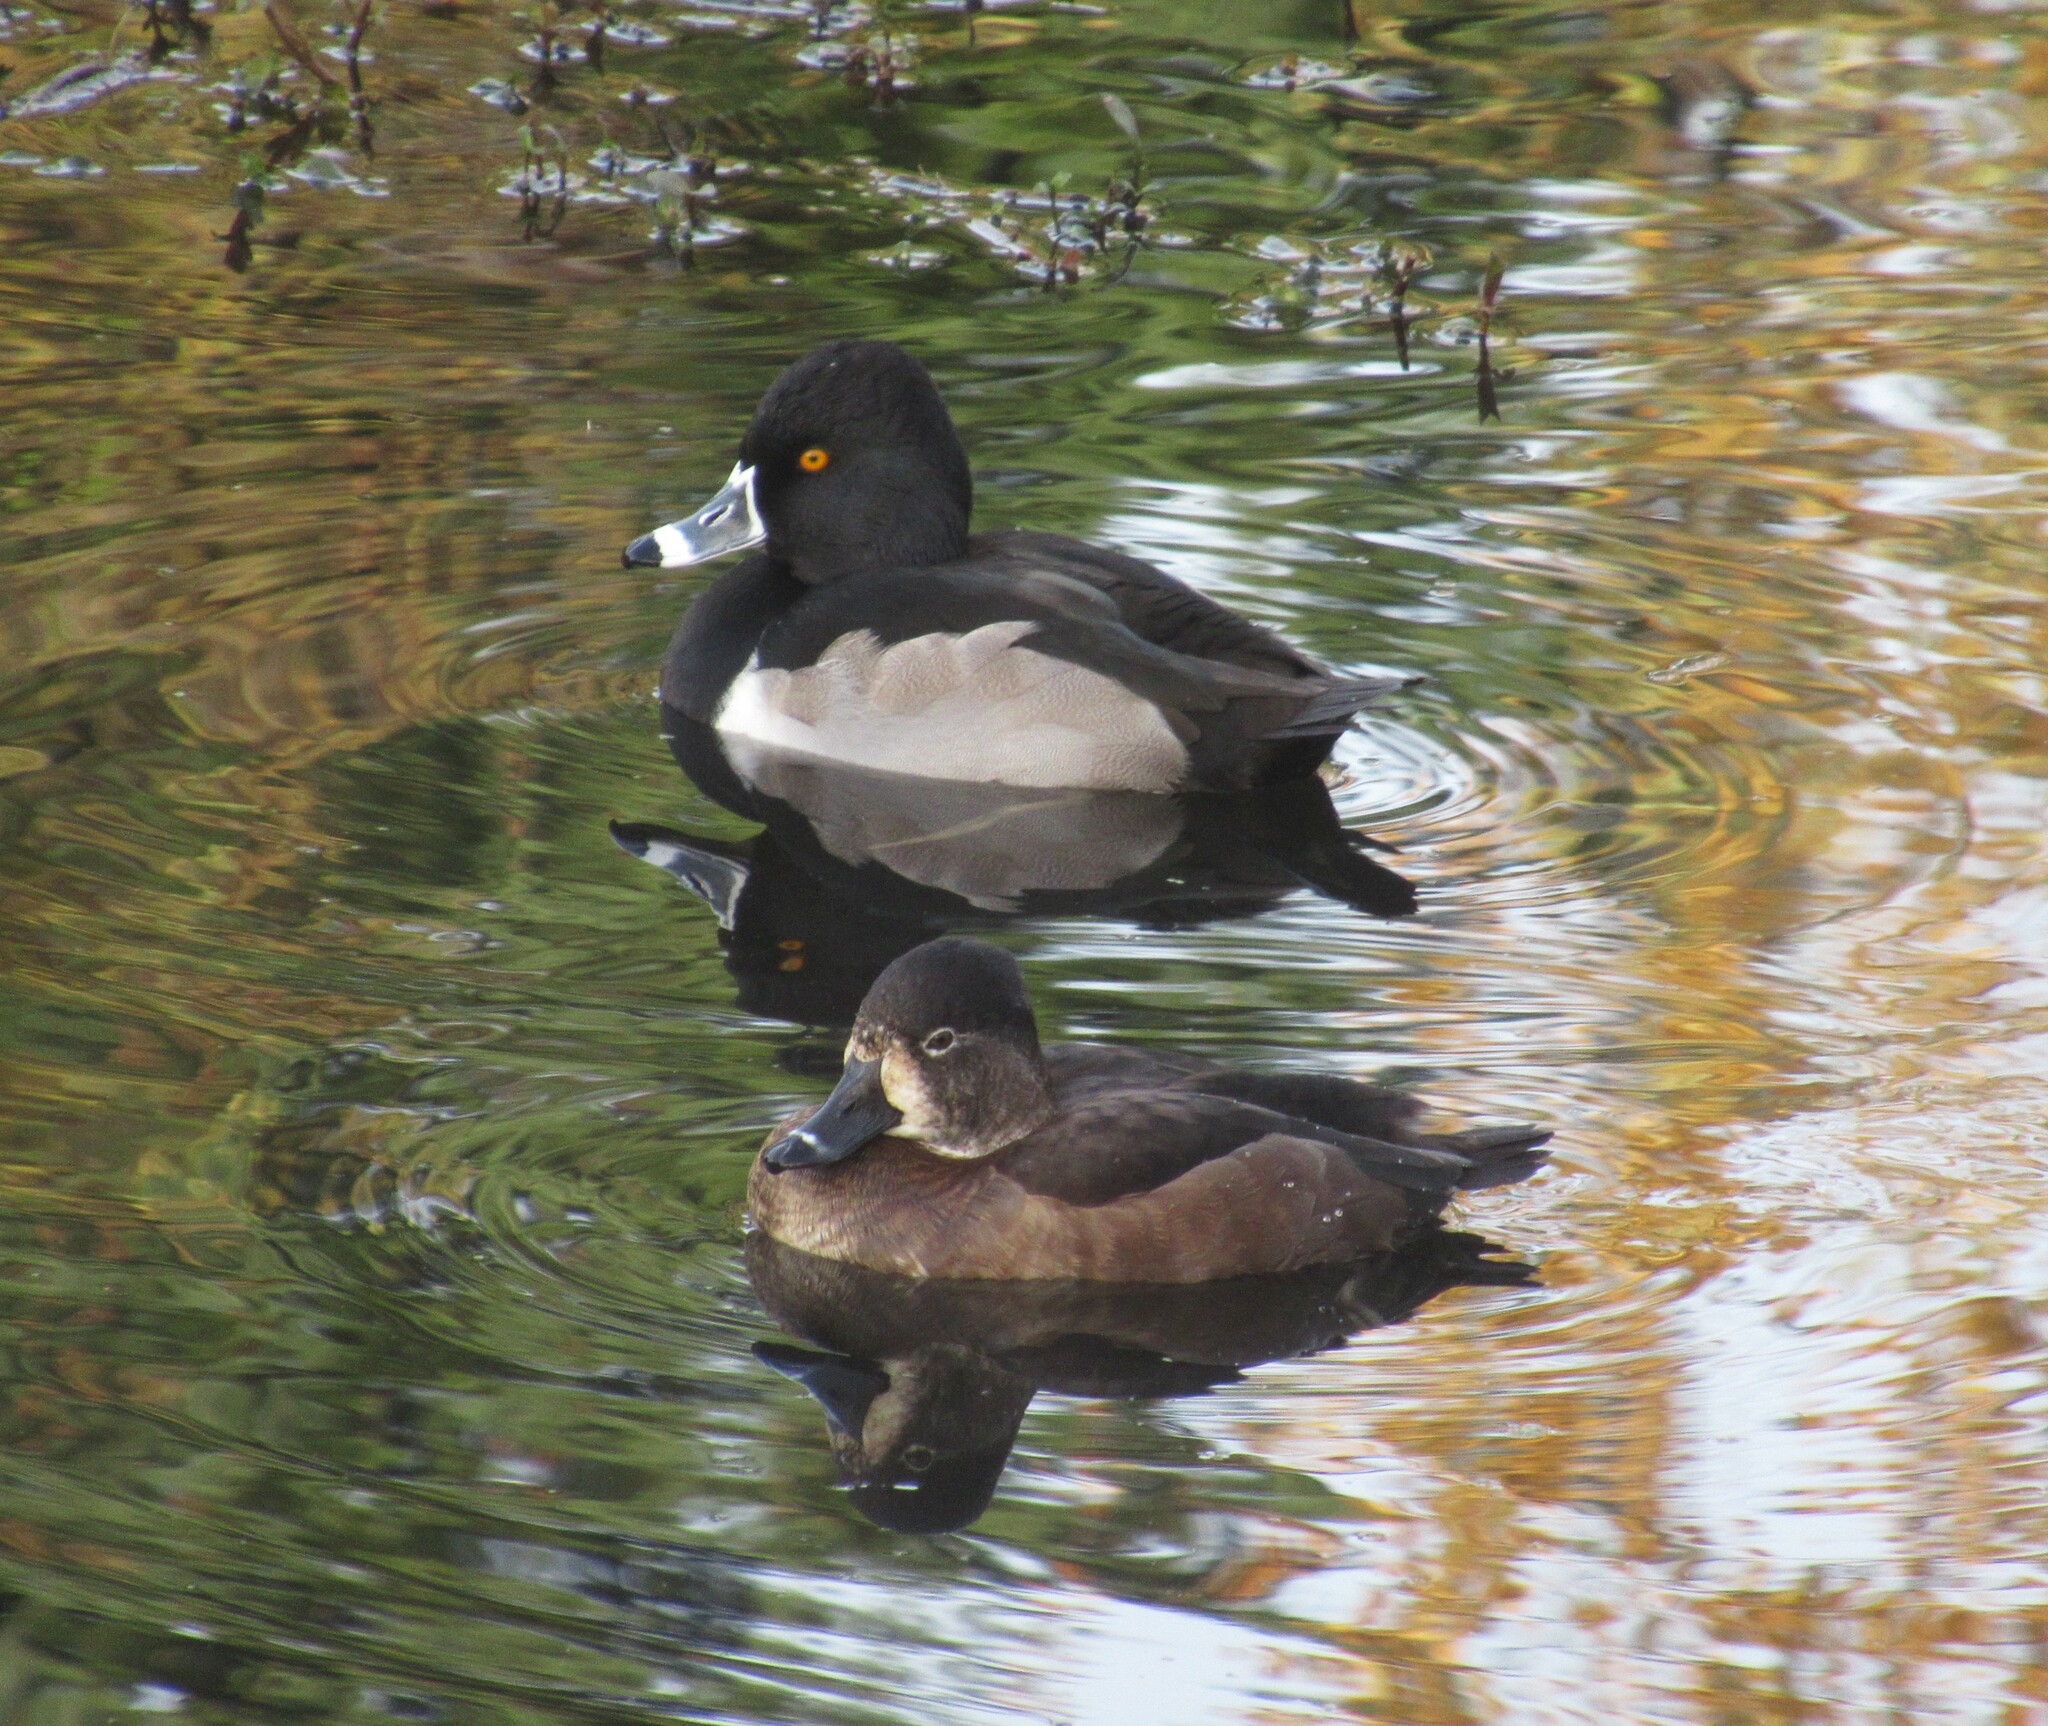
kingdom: Animalia
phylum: Chordata
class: Aves
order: Anseriformes
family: Anatidae
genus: Aythya
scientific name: Aythya collaris
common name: Ring-necked duck
